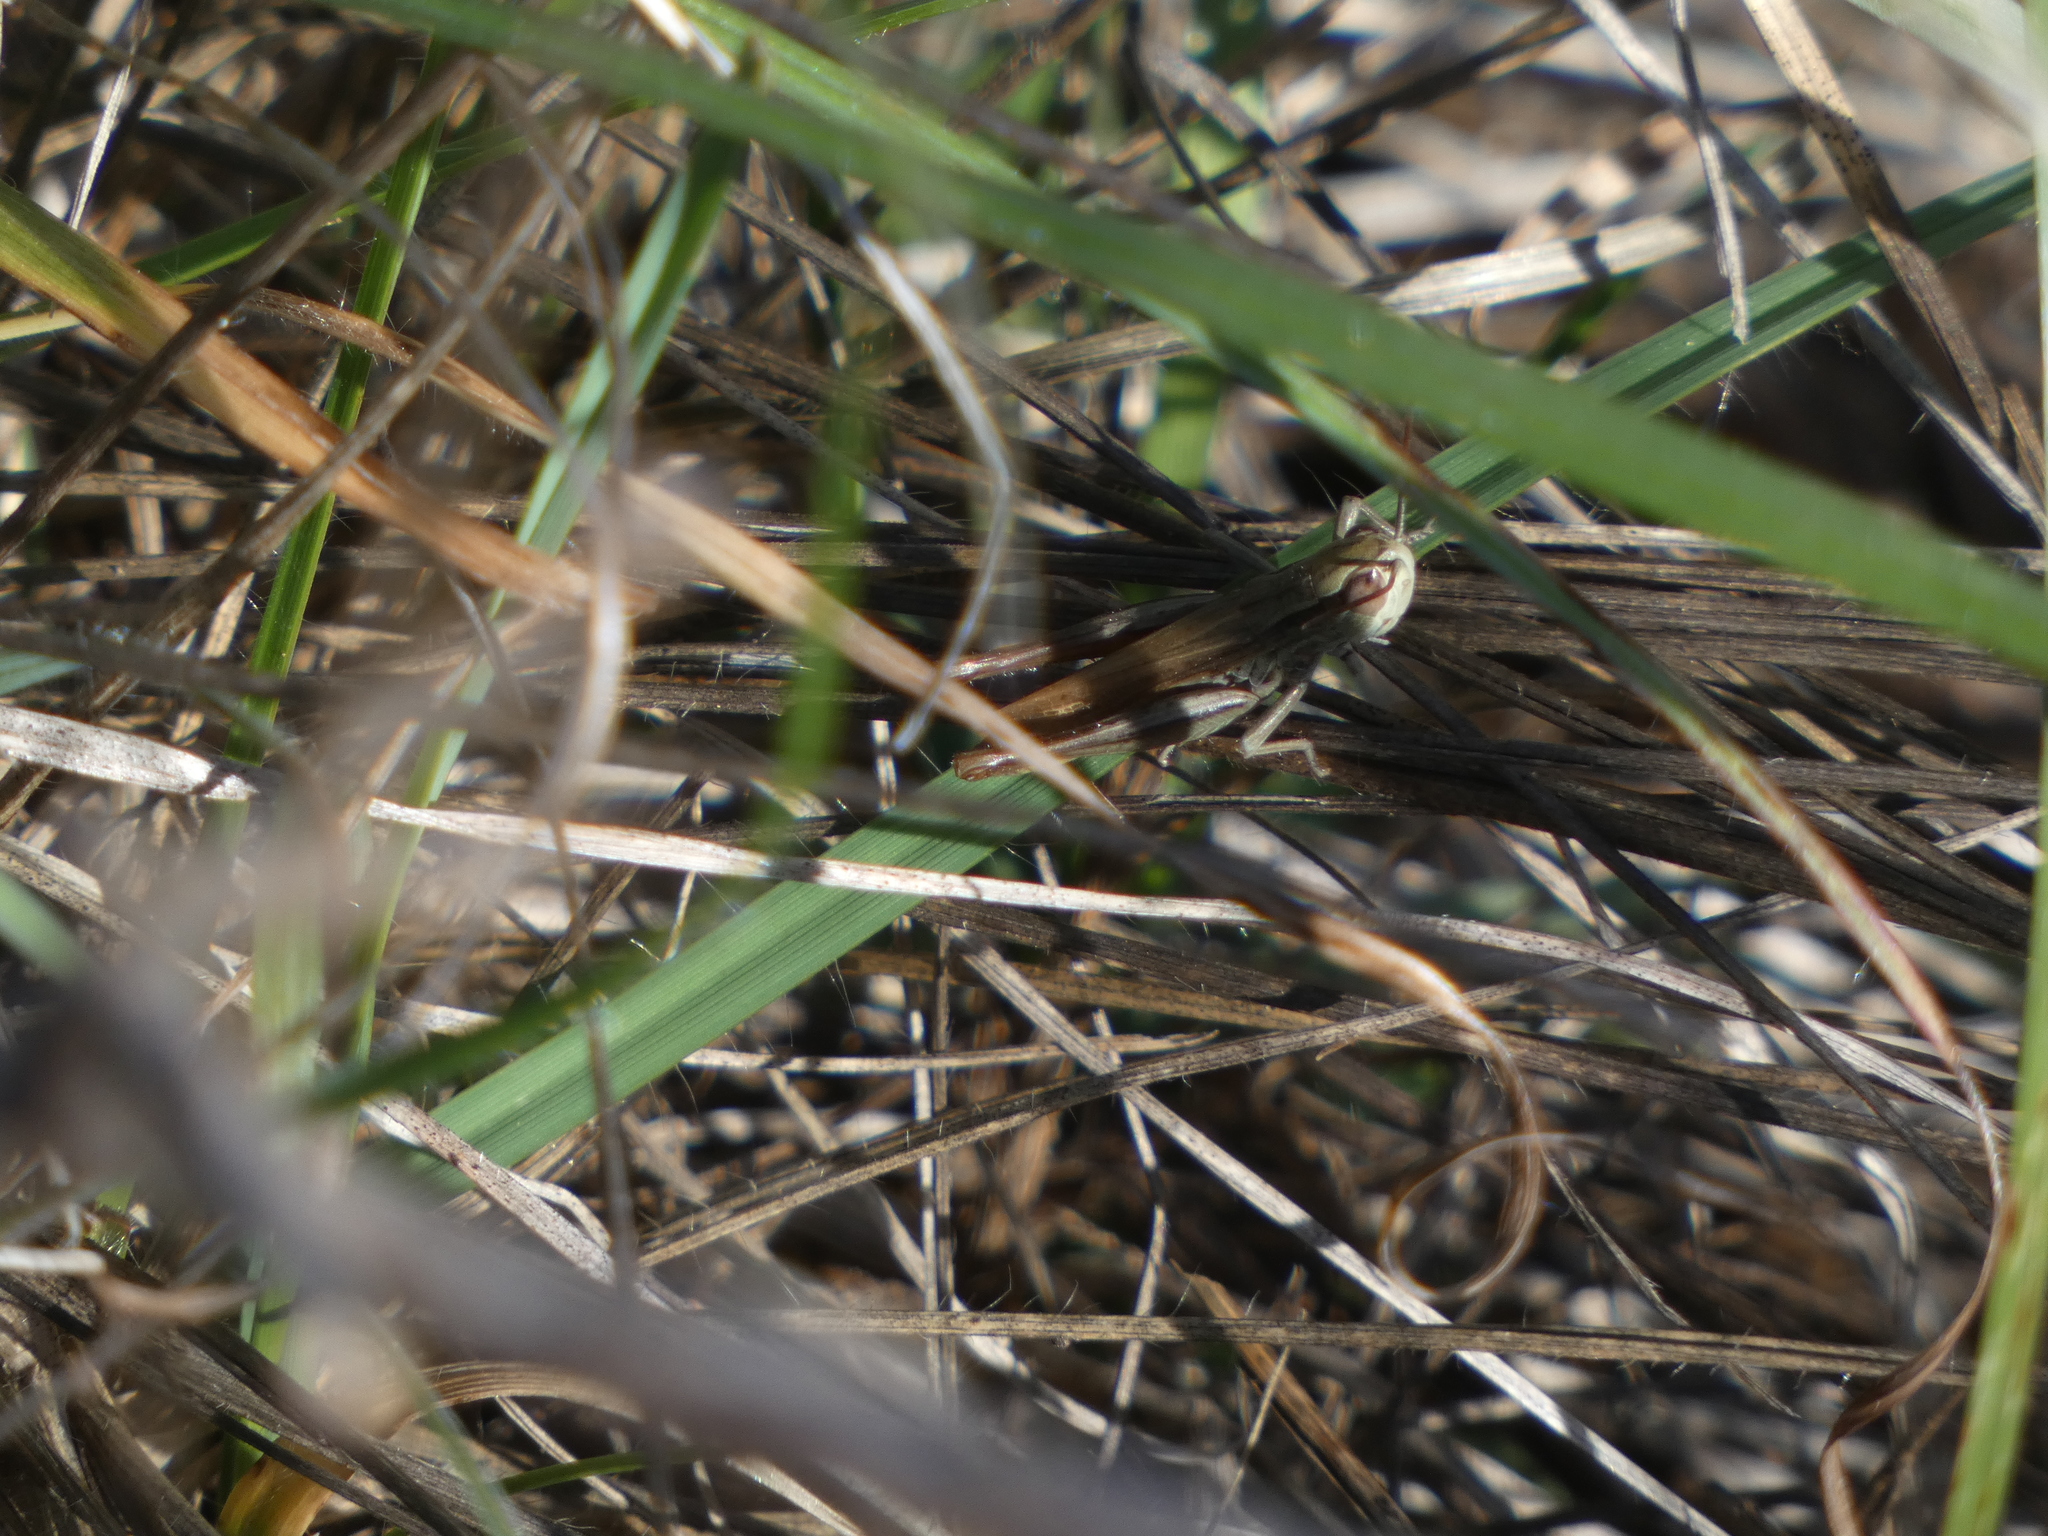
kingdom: Animalia
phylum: Arthropoda
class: Insecta
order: Orthoptera
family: Acrididae
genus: Euchorthippus
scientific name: Euchorthippus elegantulus
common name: Elegant straw grasshopper
